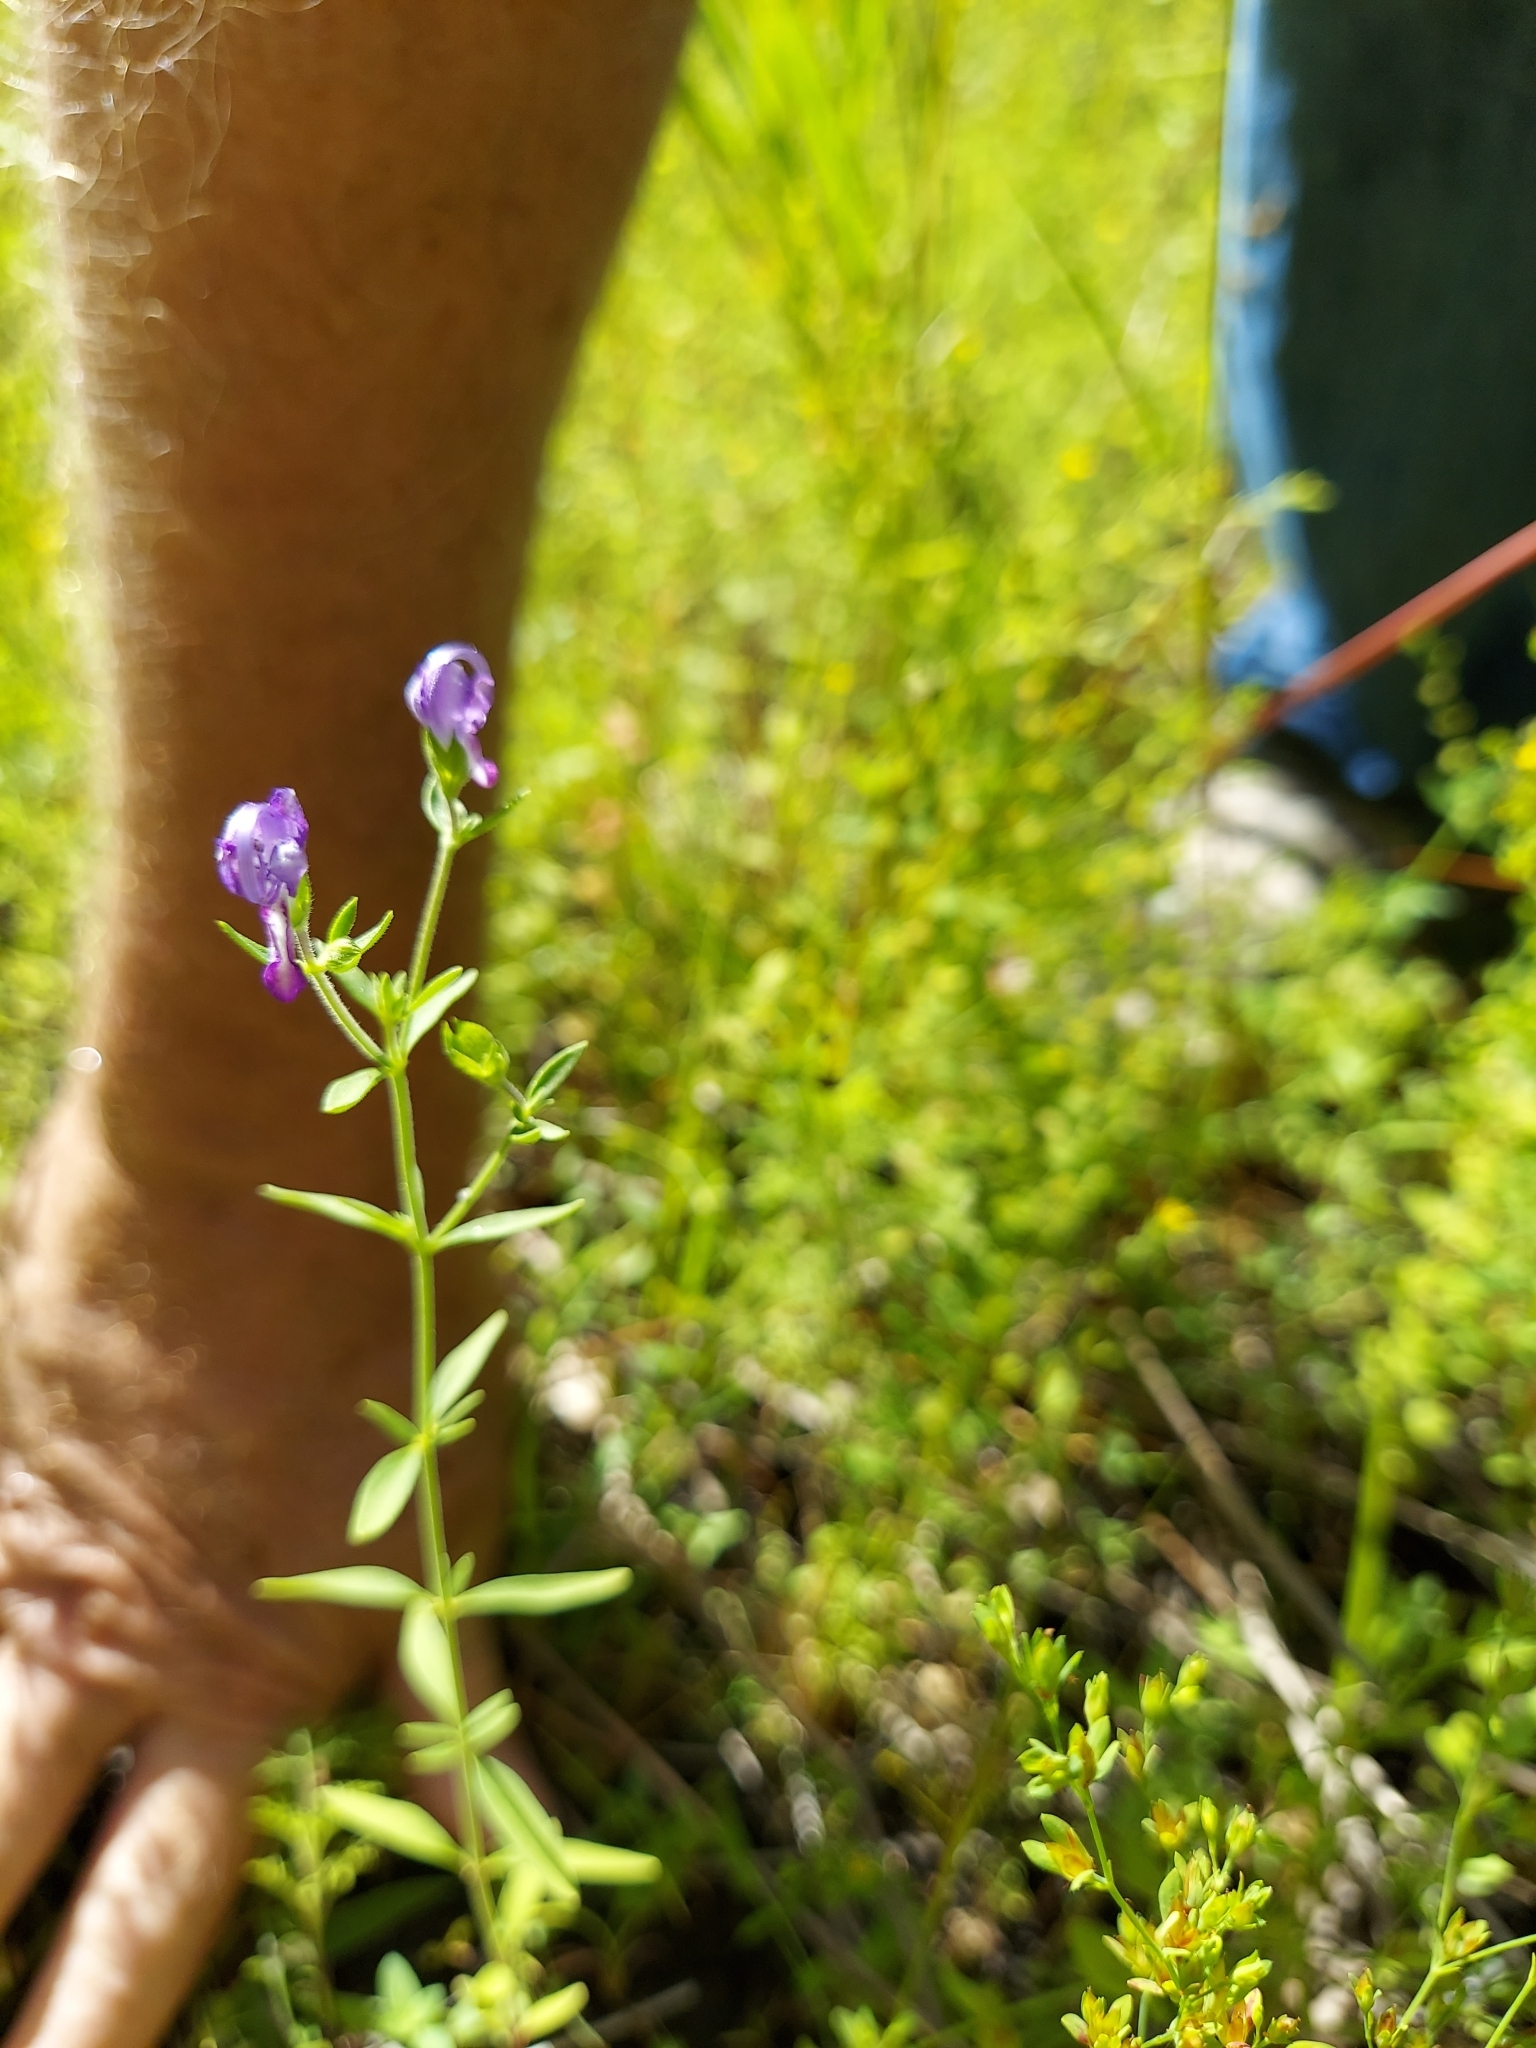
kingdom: Plantae
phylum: Tracheophyta
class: Magnoliopsida
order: Lamiales
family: Lamiaceae
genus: Trichostema
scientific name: Trichostema dichotomum
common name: Bastard pennyroyal
